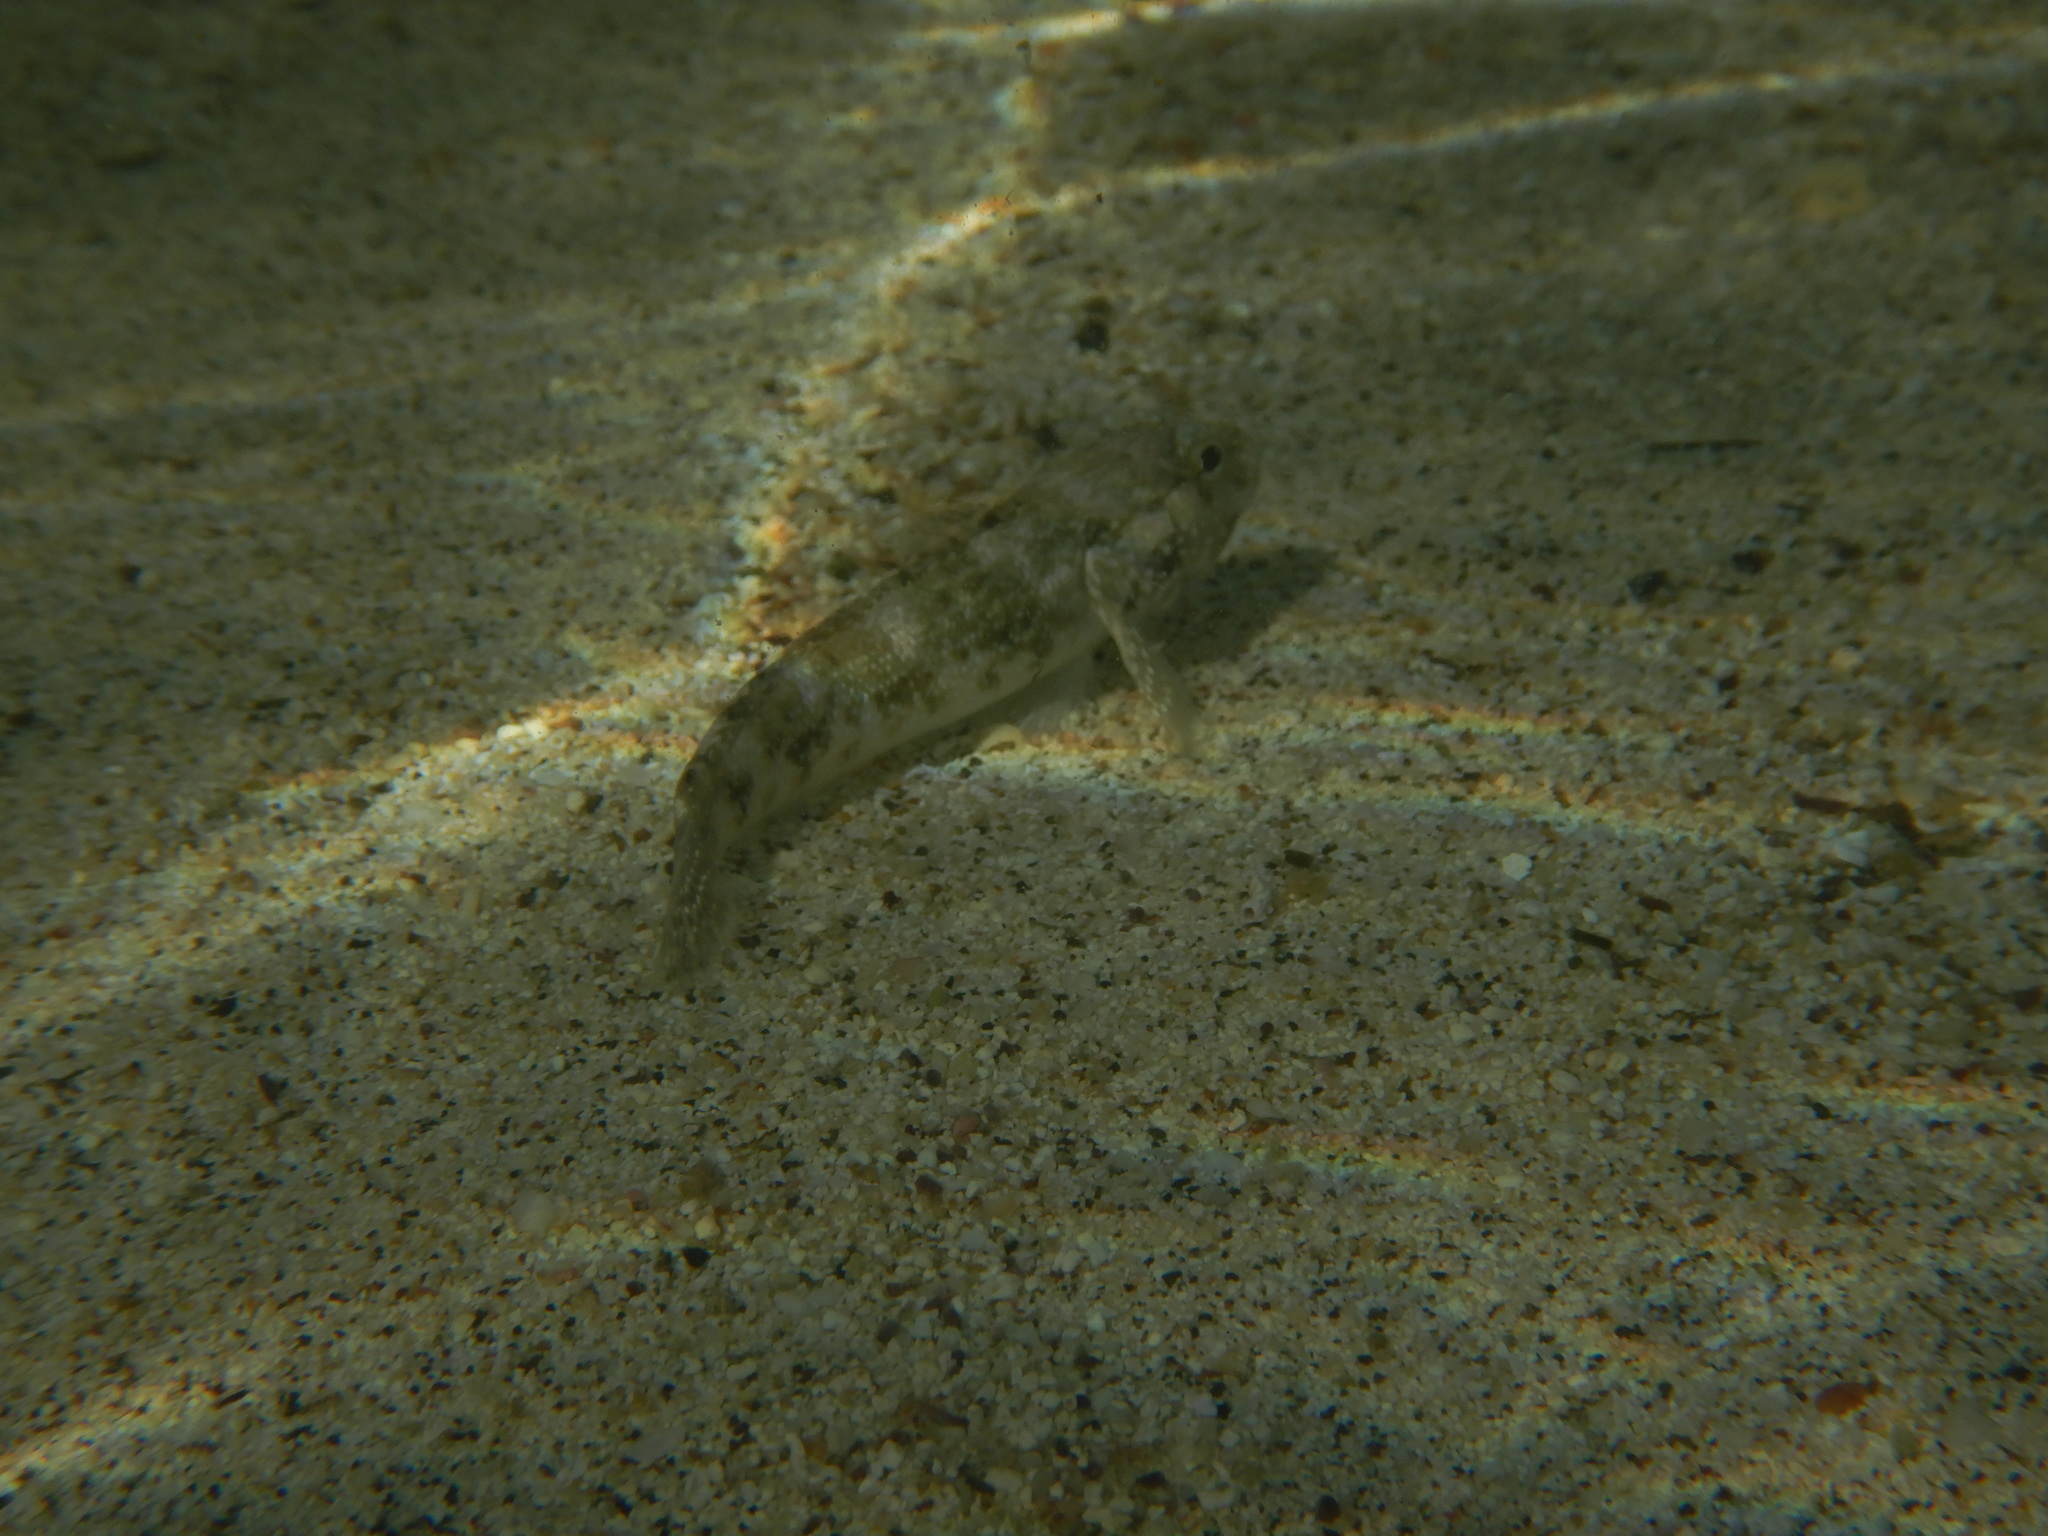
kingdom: Animalia
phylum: Chordata
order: Perciformes
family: Gobiidae
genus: Mauligobius
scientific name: Mauligobius maderensis
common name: Rock goby
